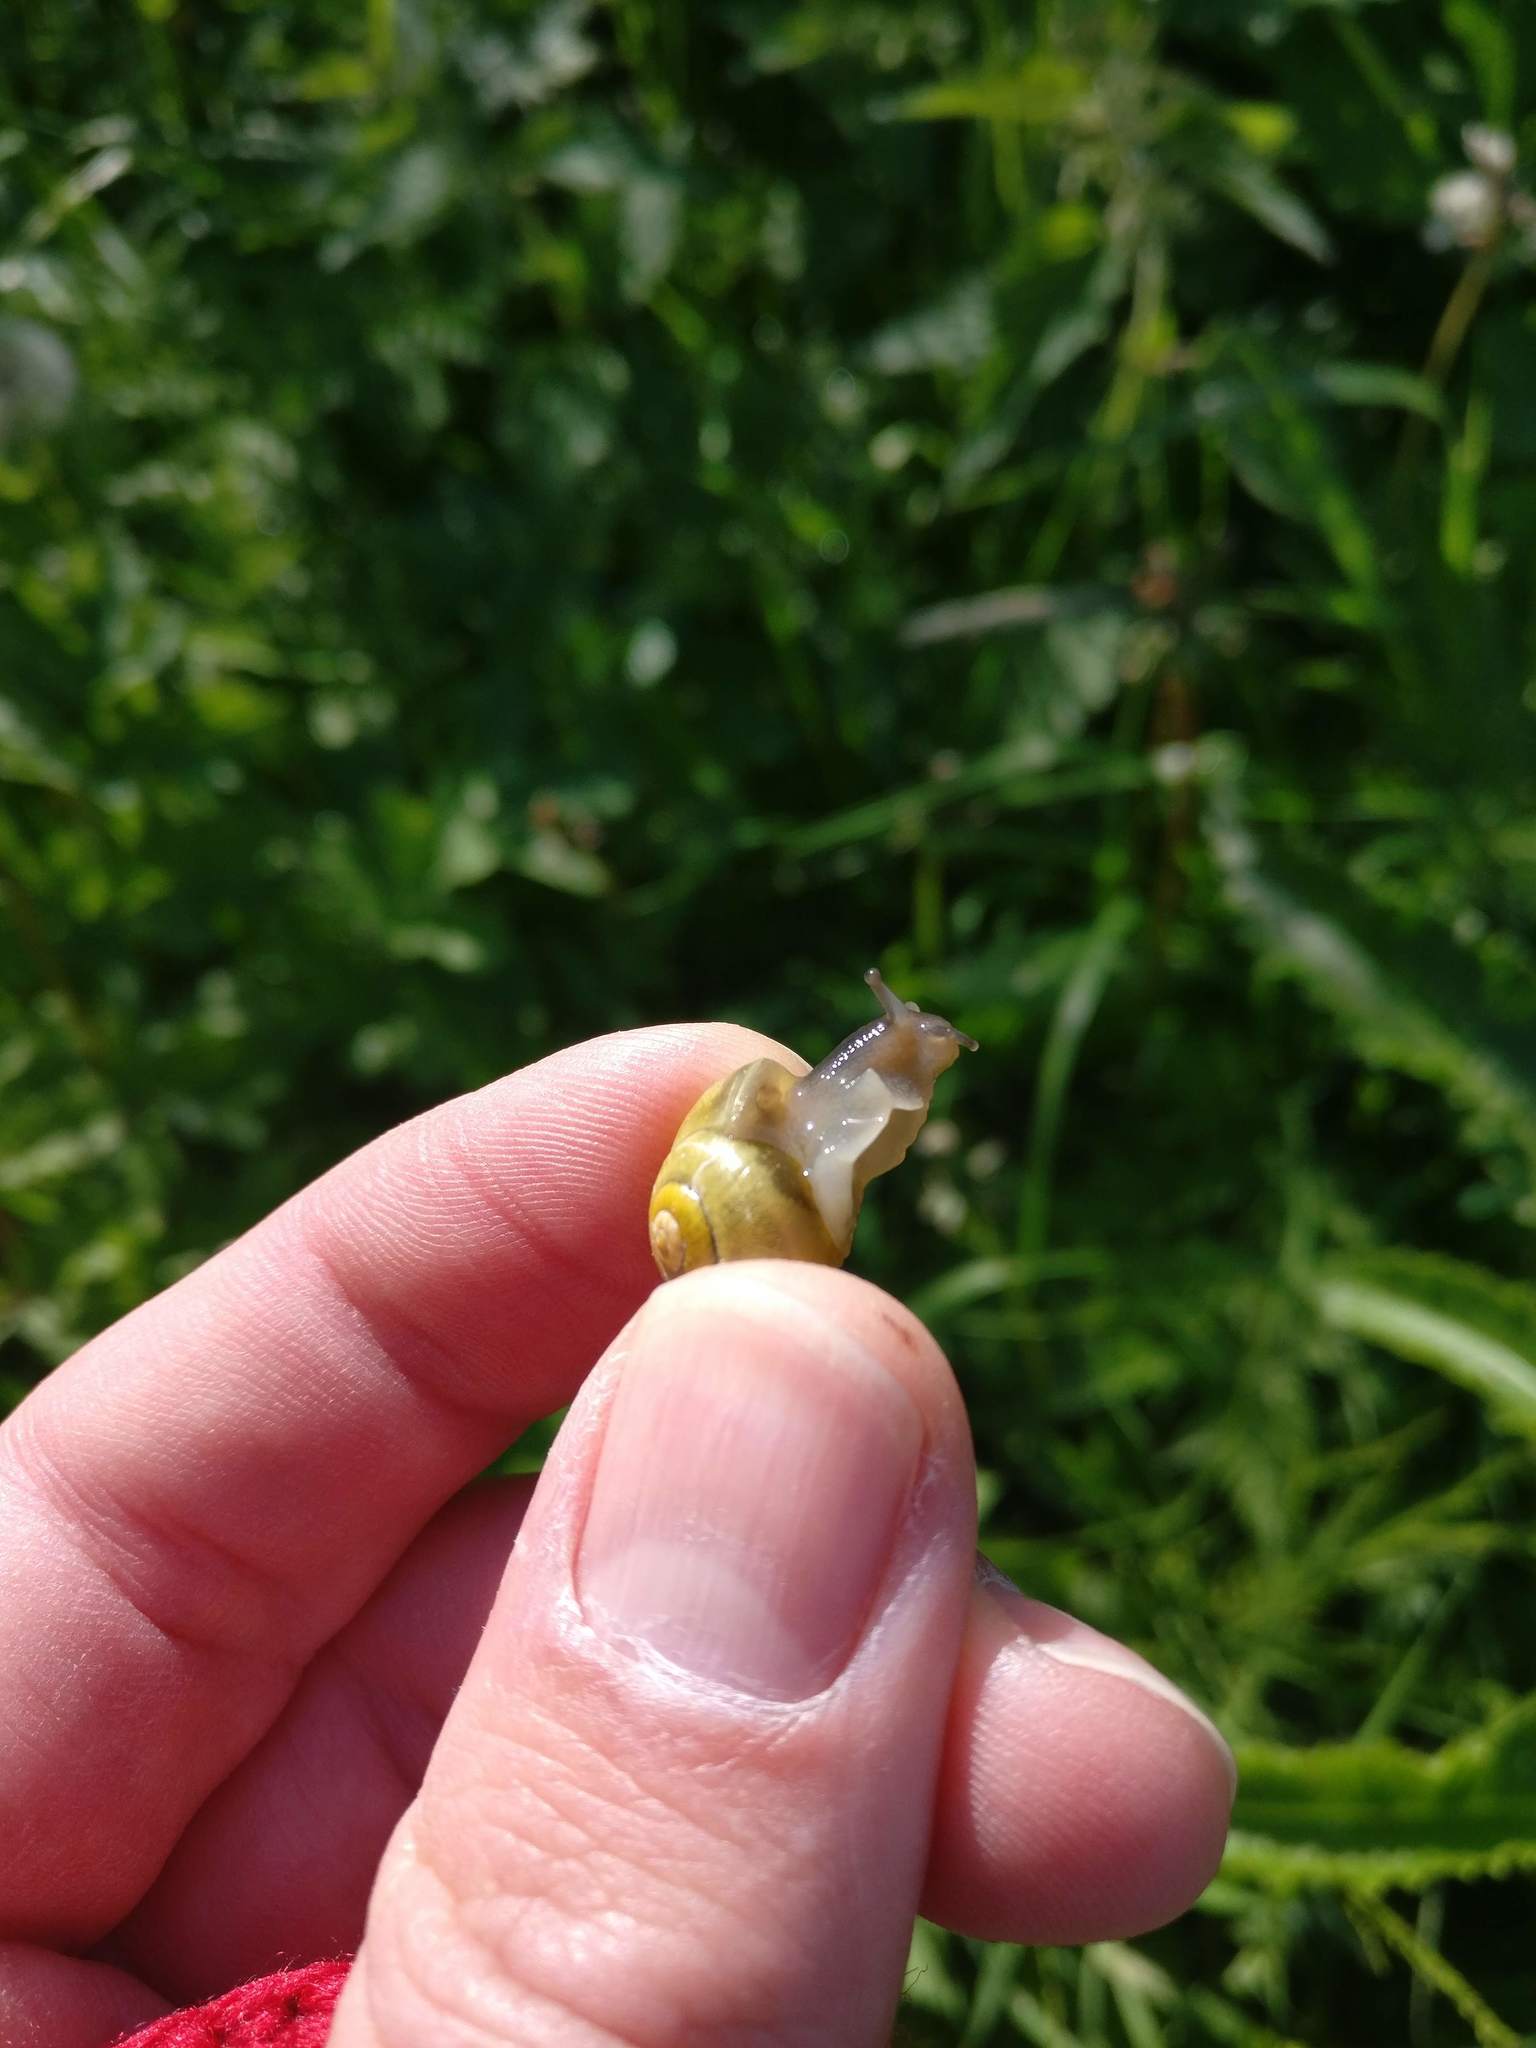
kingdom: Animalia
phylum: Mollusca
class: Gastropoda
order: Stylommatophora
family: Helicidae
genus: Cepaea
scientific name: Cepaea hortensis
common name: White-lip gardensnail
